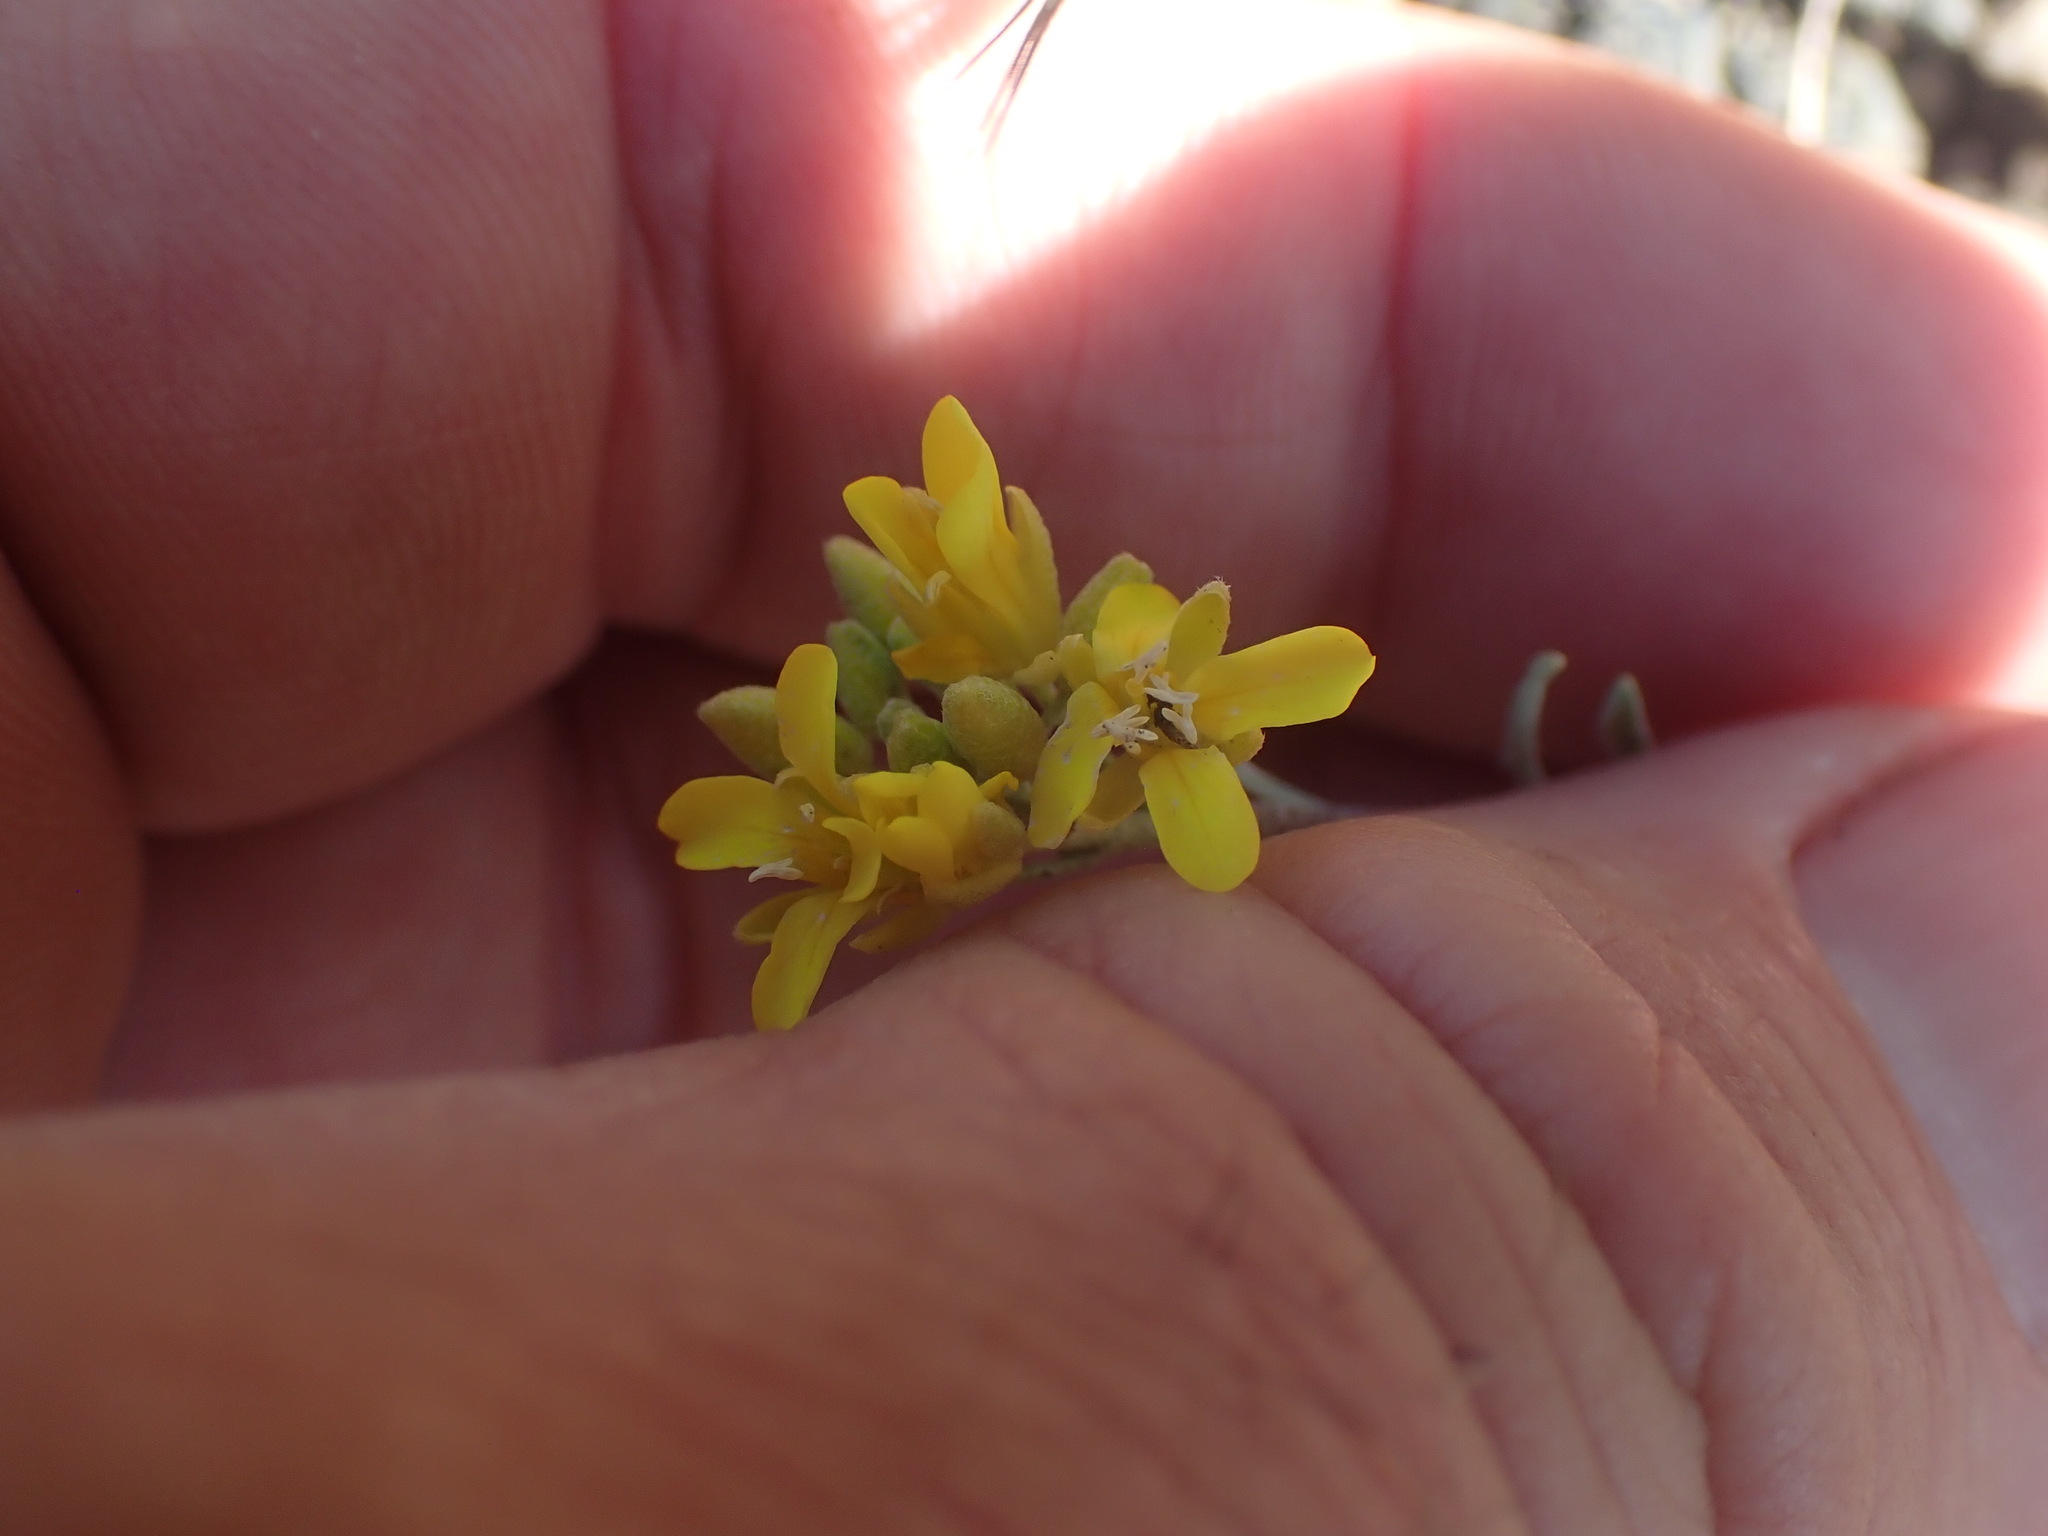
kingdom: Plantae
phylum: Tracheophyta
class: Magnoliopsida
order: Brassicales
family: Brassicaceae
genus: Physaria
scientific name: Physaria douglasii
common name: Douglas's bladderpod
